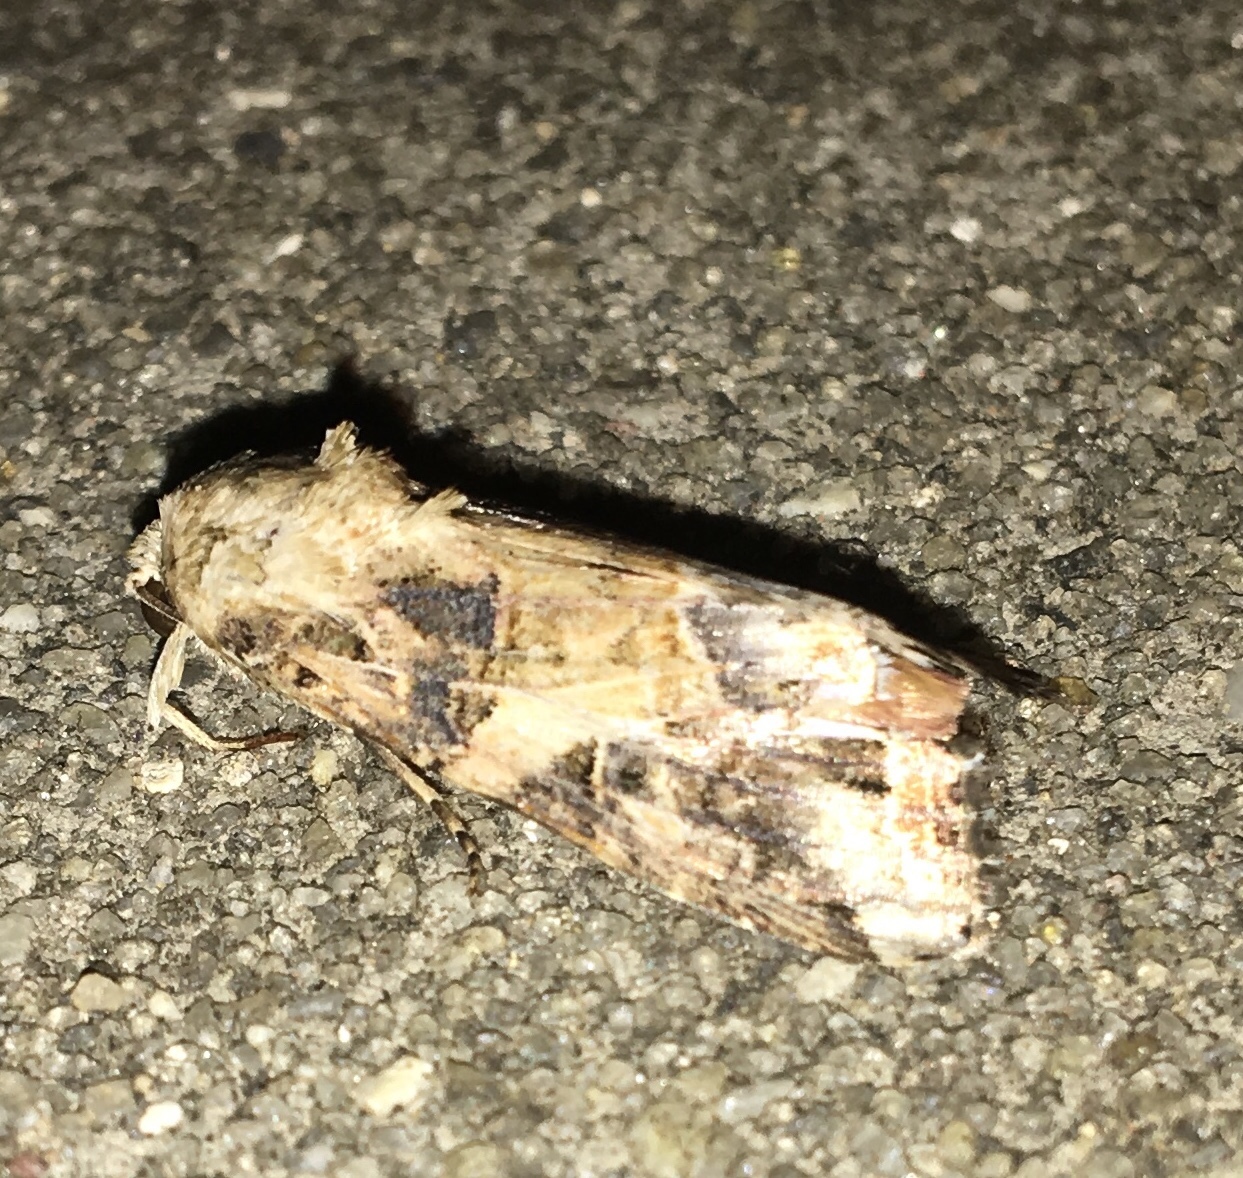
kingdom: Animalia
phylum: Arthropoda
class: Insecta
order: Lepidoptera
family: Noctuidae
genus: Spodoptera
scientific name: Spodoptera latifascia
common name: Velvet armyworm moth
